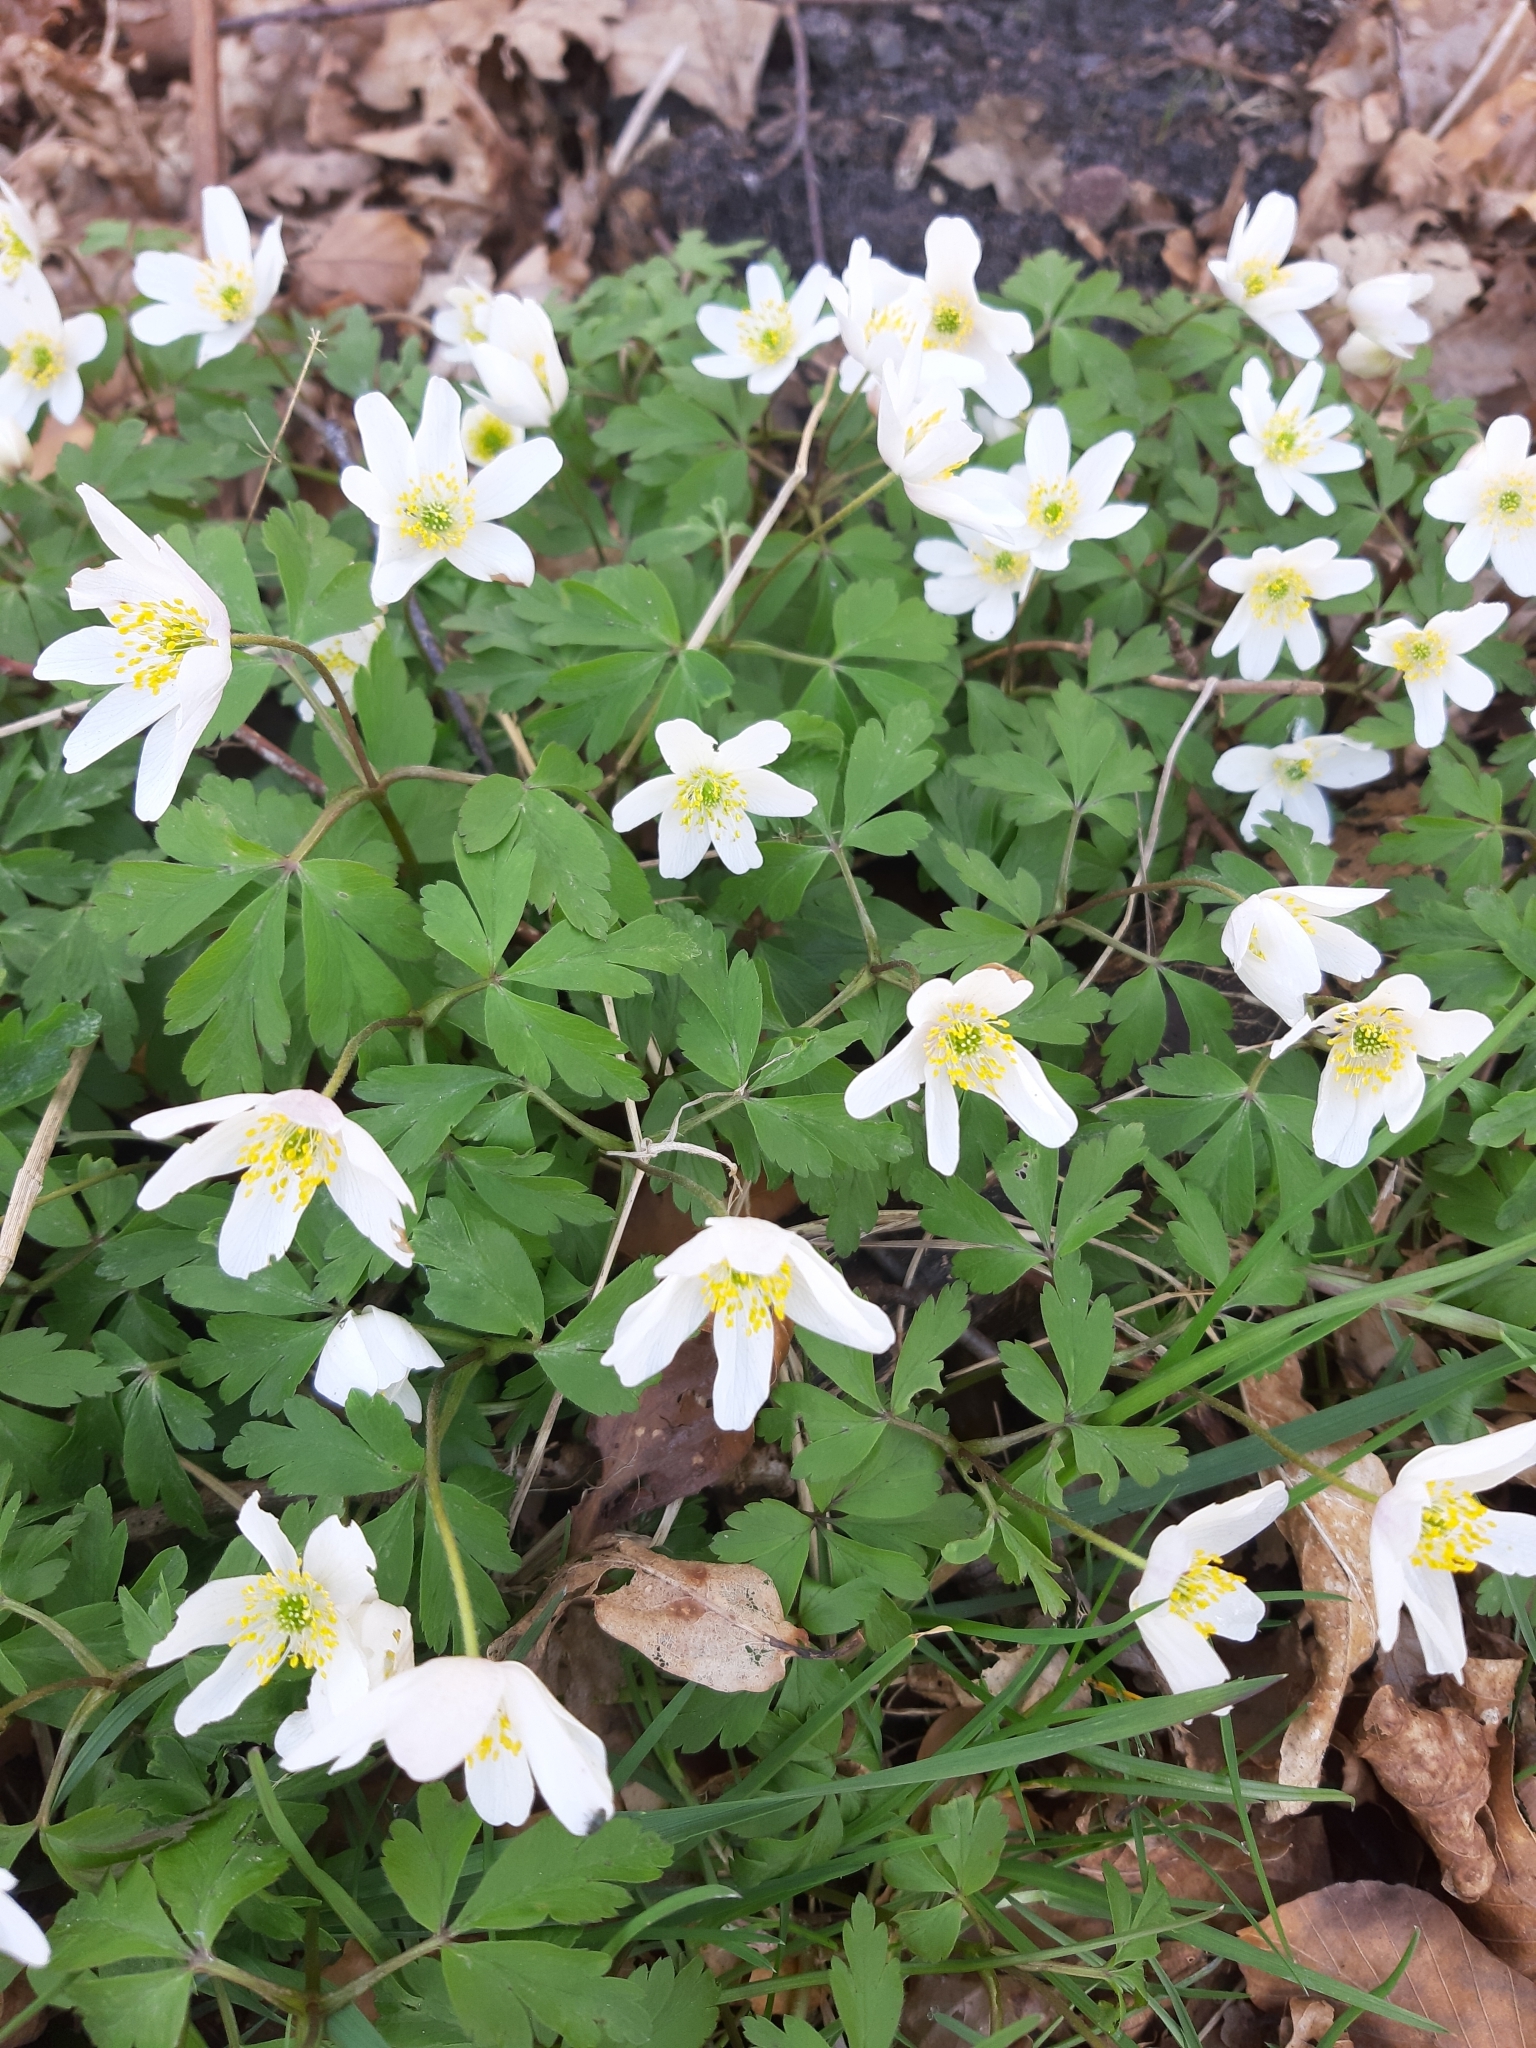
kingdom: Plantae
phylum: Tracheophyta
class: Magnoliopsida
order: Ranunculales
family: Ranunculaceae
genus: Anemone
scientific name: Anemone nemorosa
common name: Wood anemone
